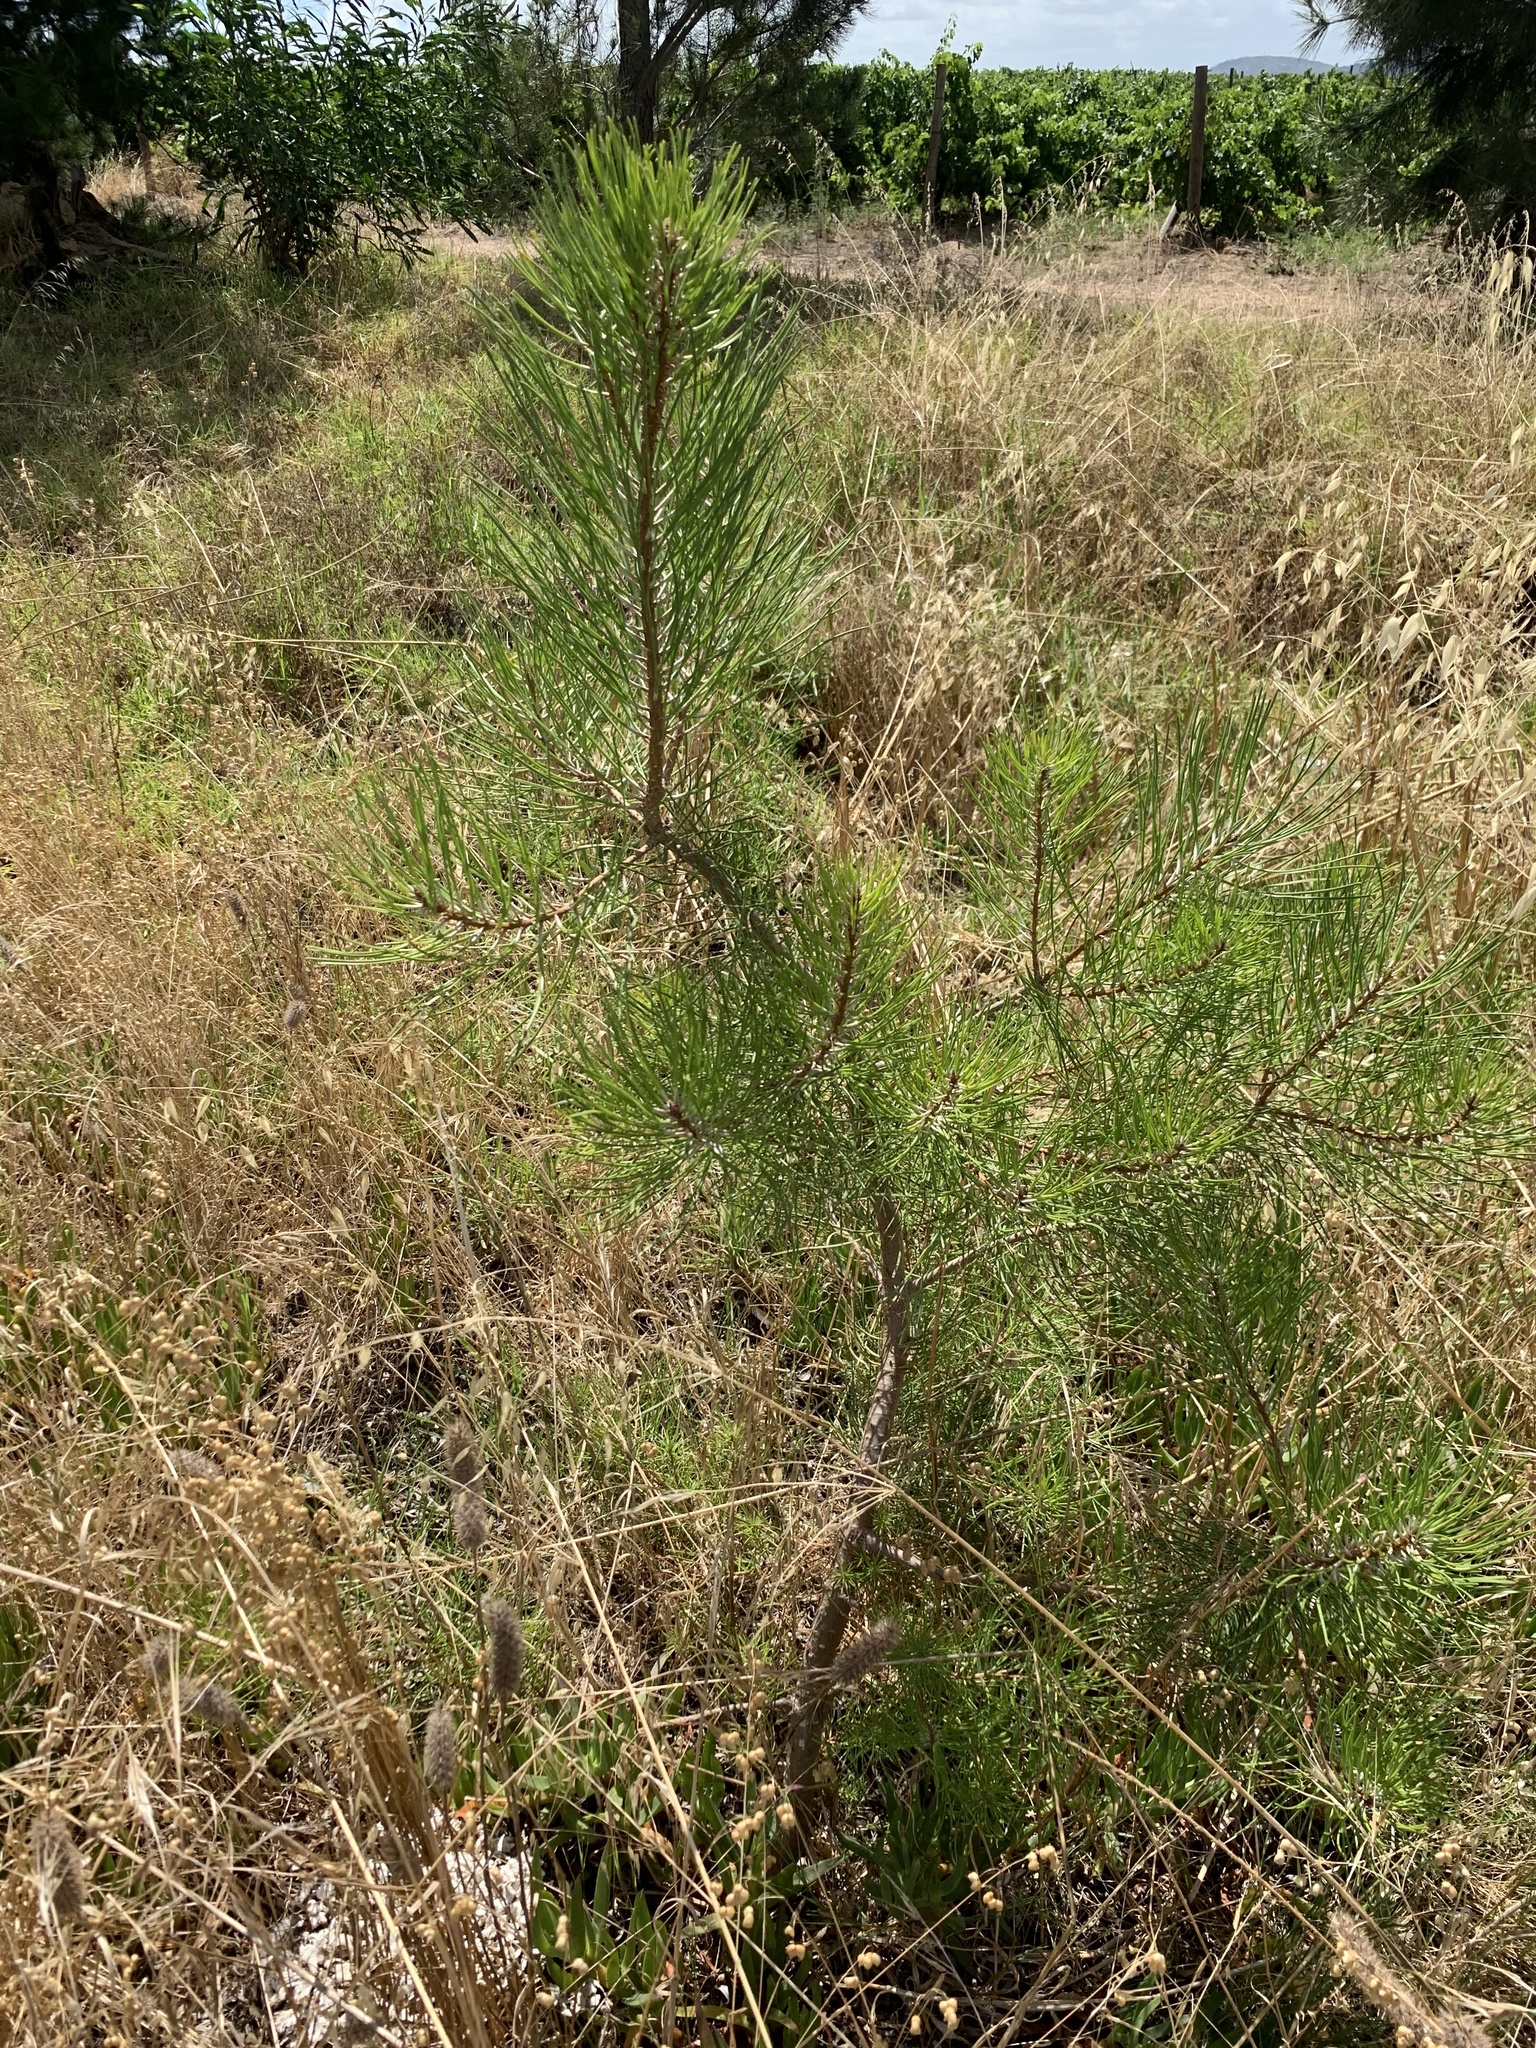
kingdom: Plantae
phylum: Tracheophyta
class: Pinopsida
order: Pinales
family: Pinaceae
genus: Pinus
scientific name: Pinus pinaster
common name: Maritime pine
